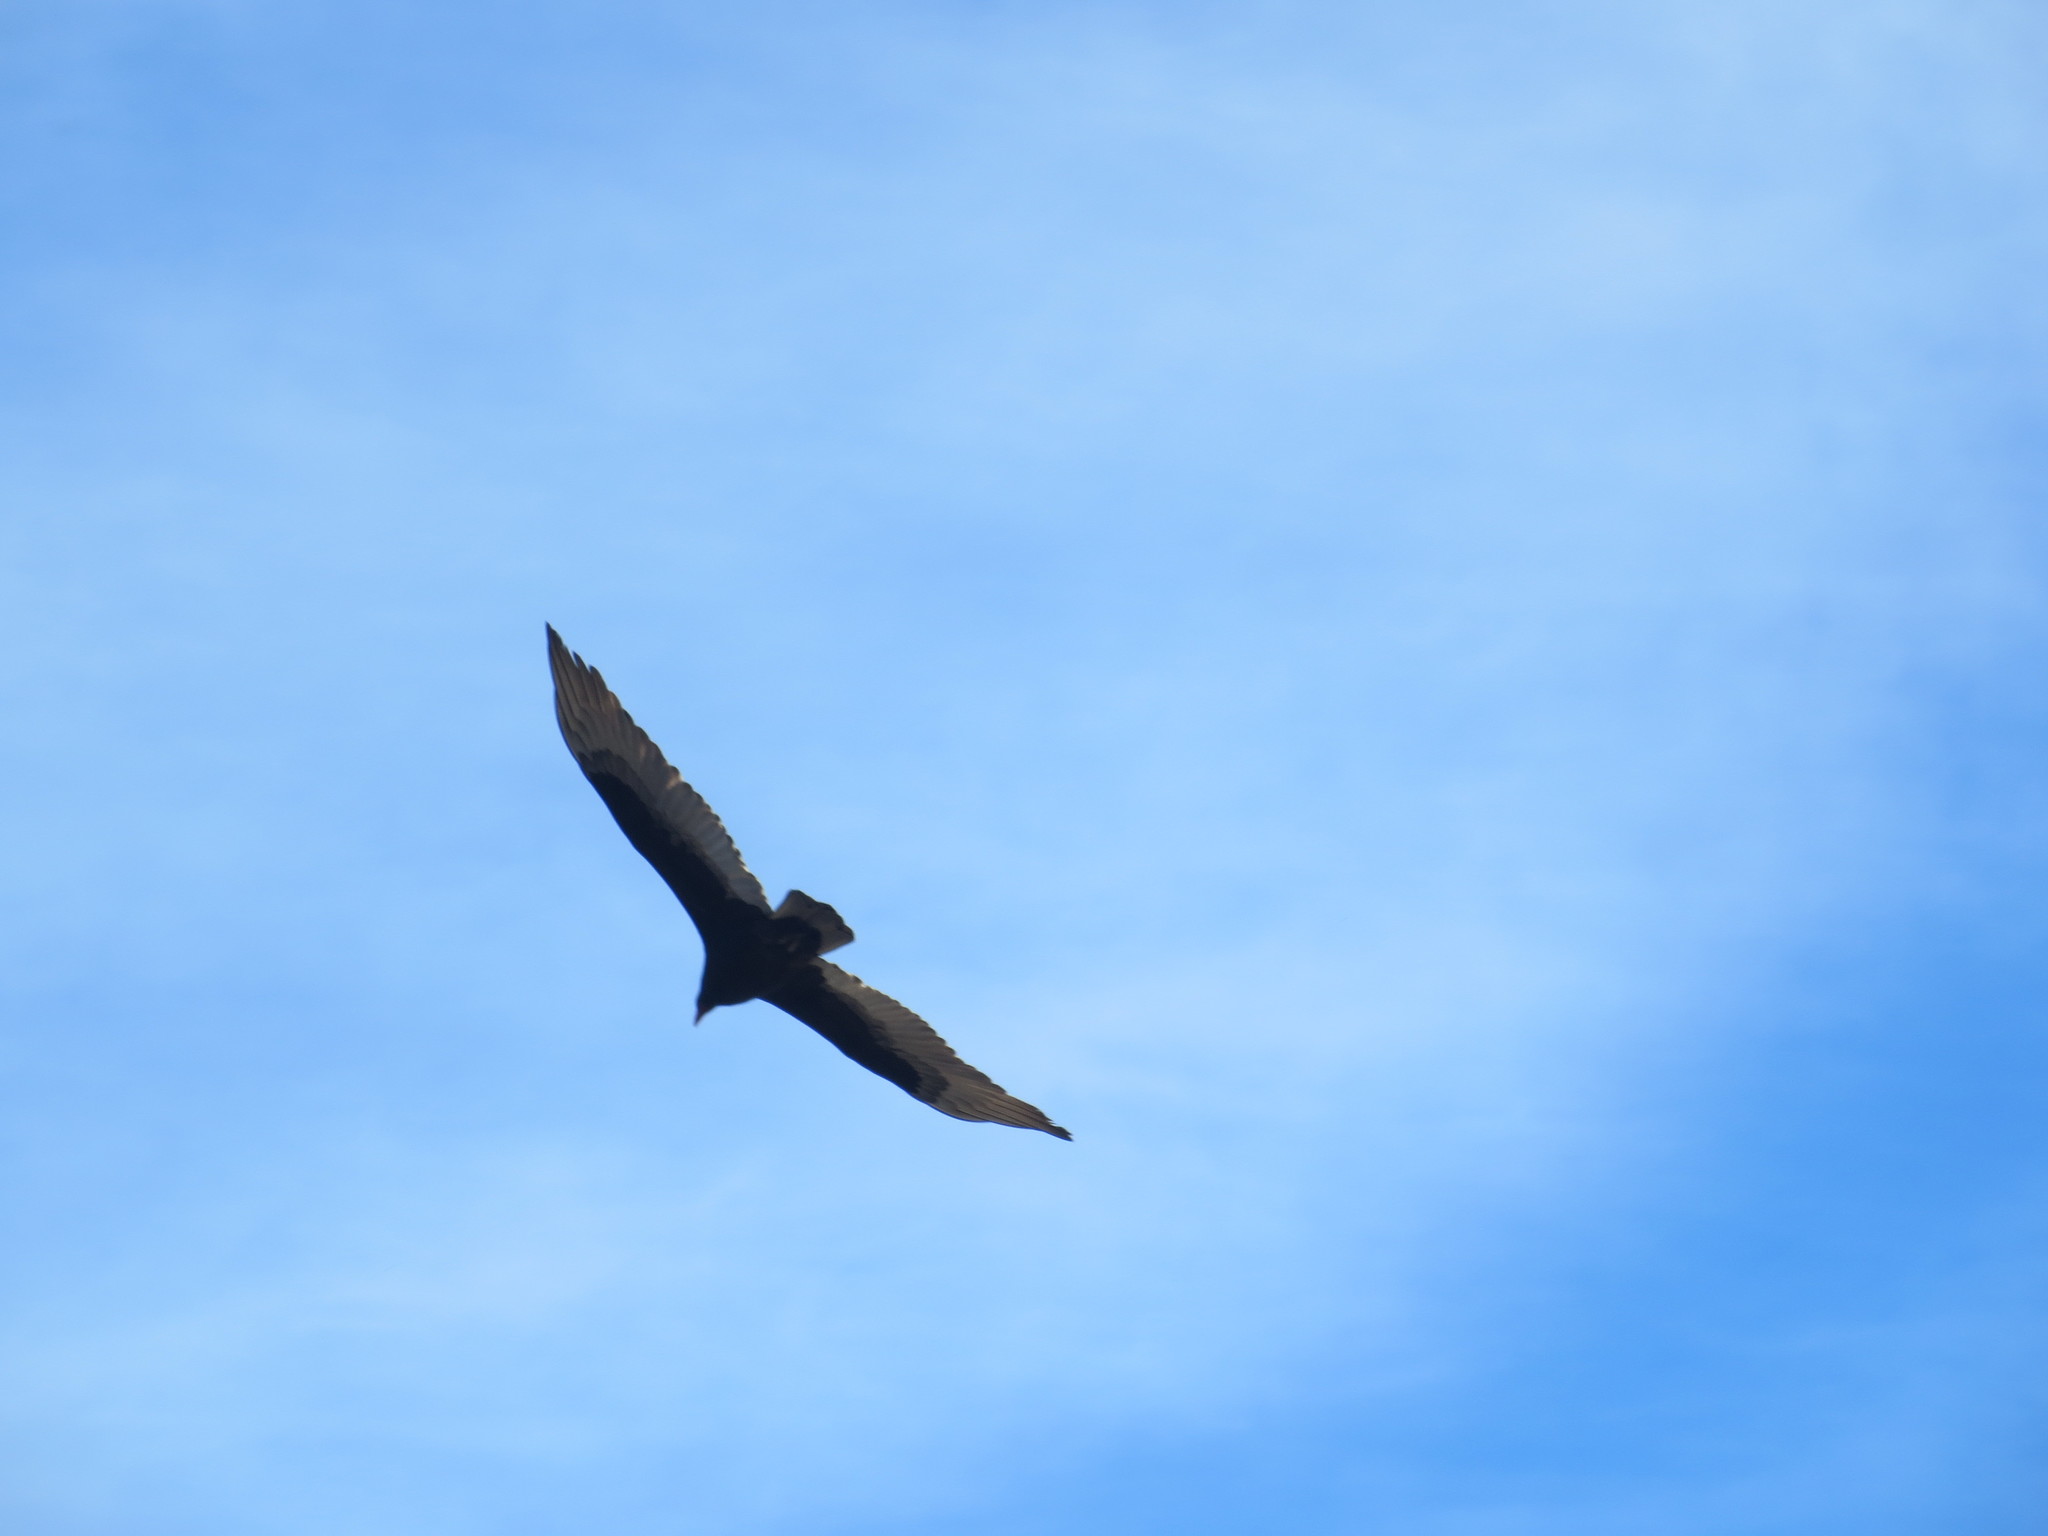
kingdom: Animalia
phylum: Chordata
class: Aves
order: Accipitriformes
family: Cathartidae
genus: Cathartes
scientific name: Cathartes aura
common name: Turkey vulture
